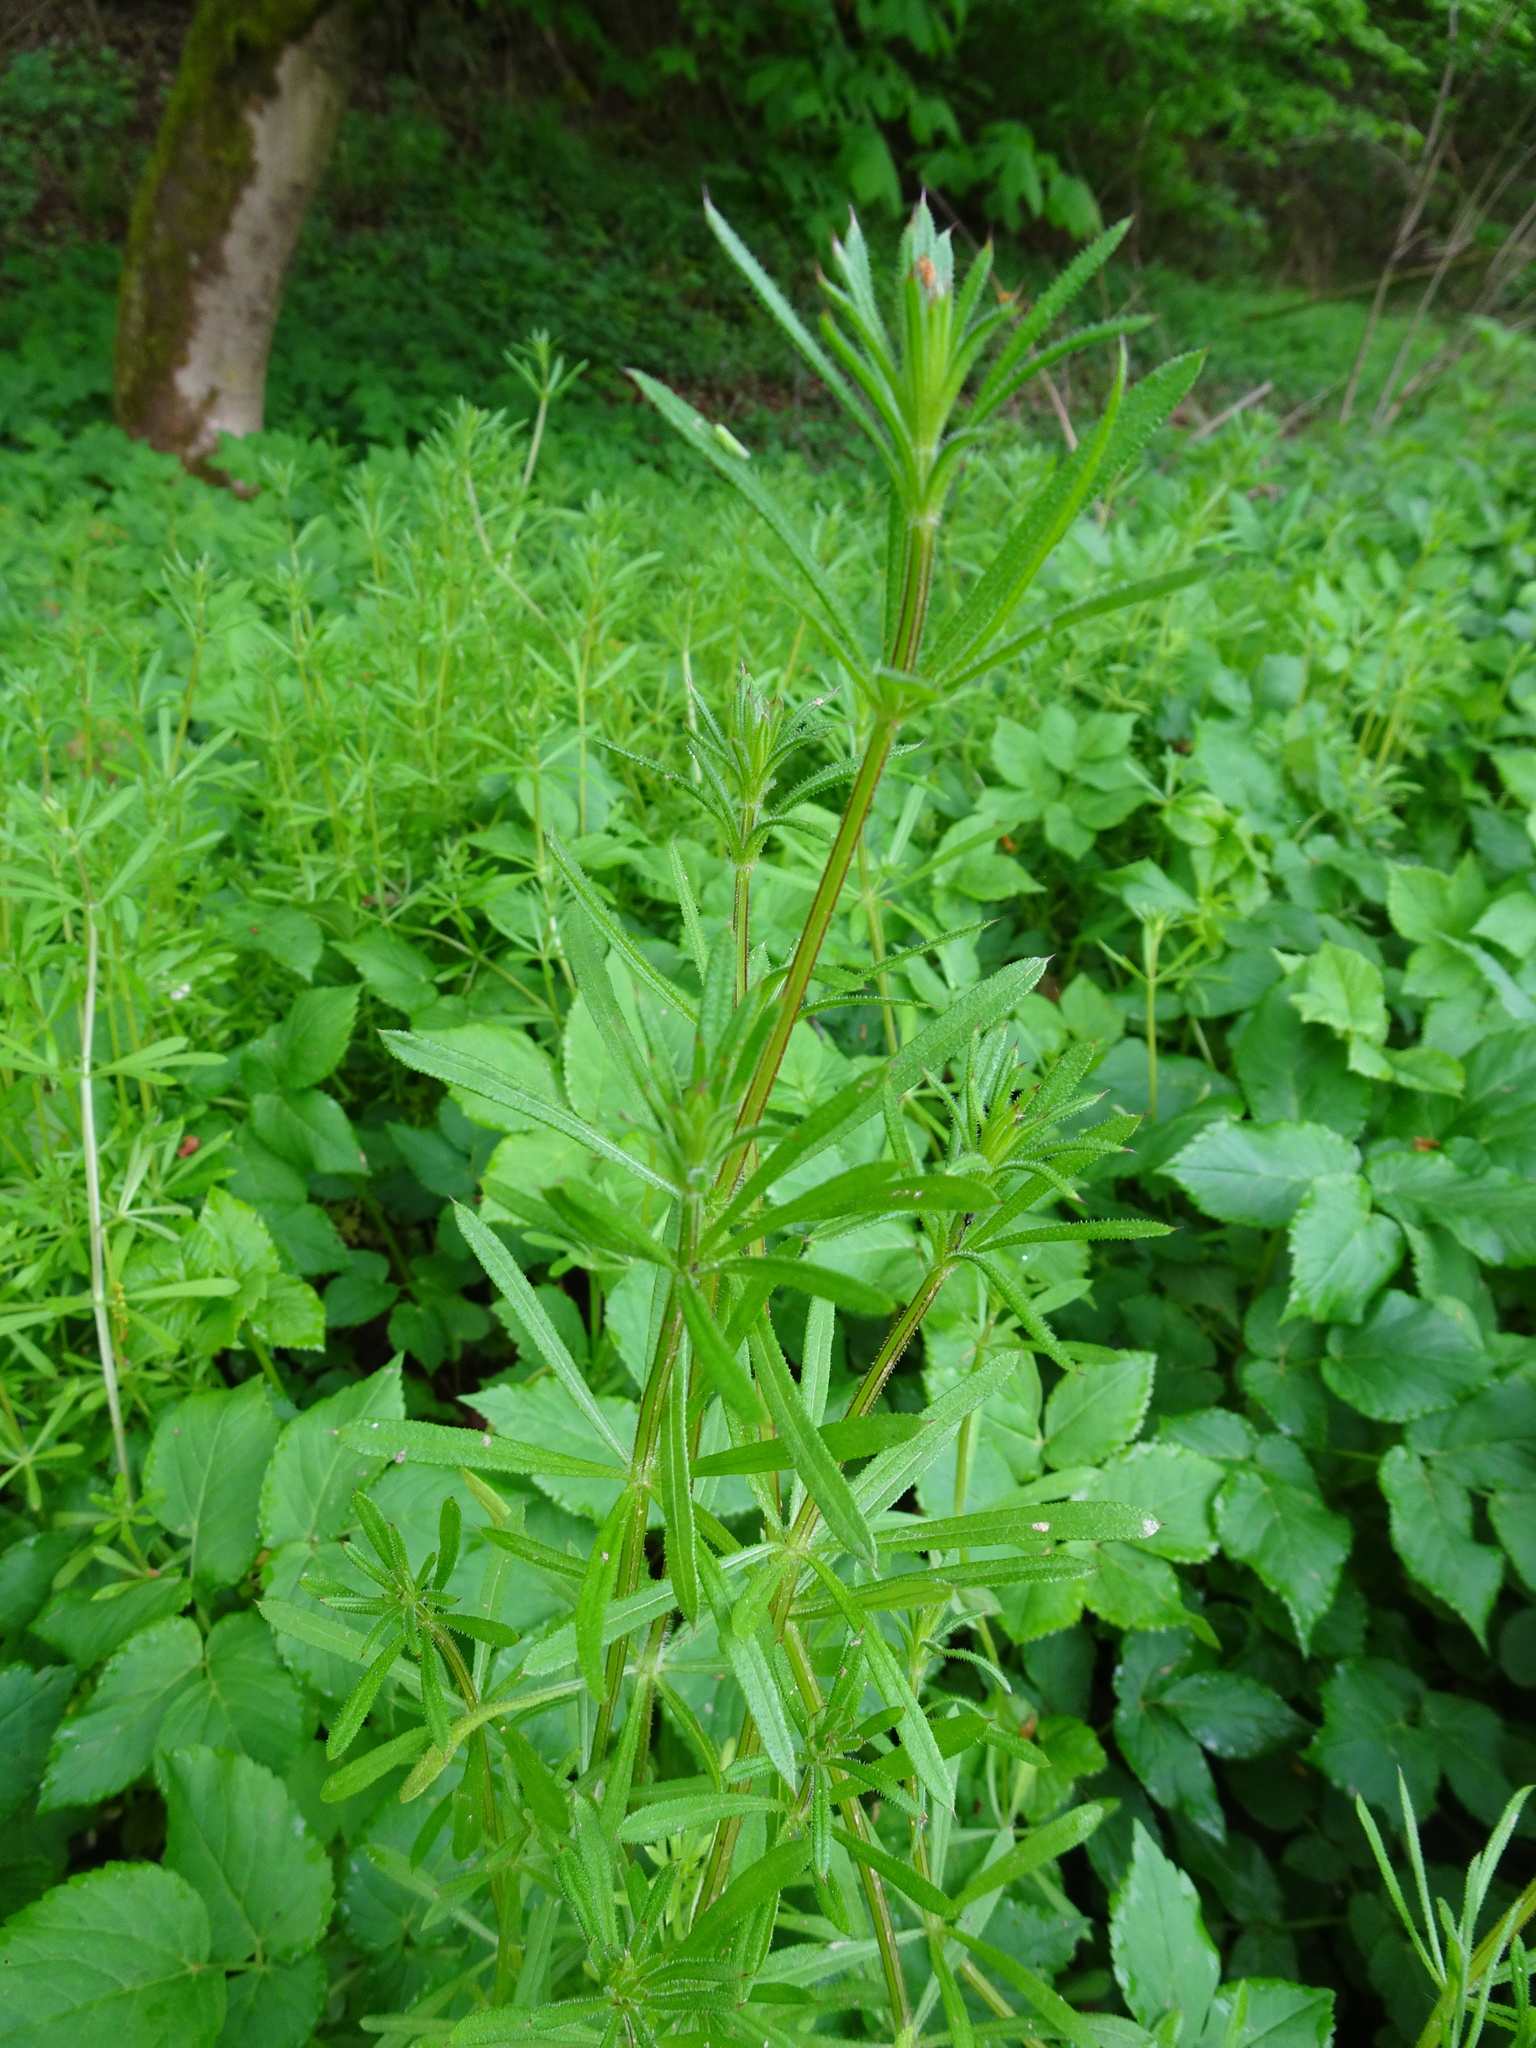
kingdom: Plantae
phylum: Tracheophyta
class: Magnoliopsida
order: Gentianales
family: Rubiaceae
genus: Galium
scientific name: Galium aparine
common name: Cleavers
